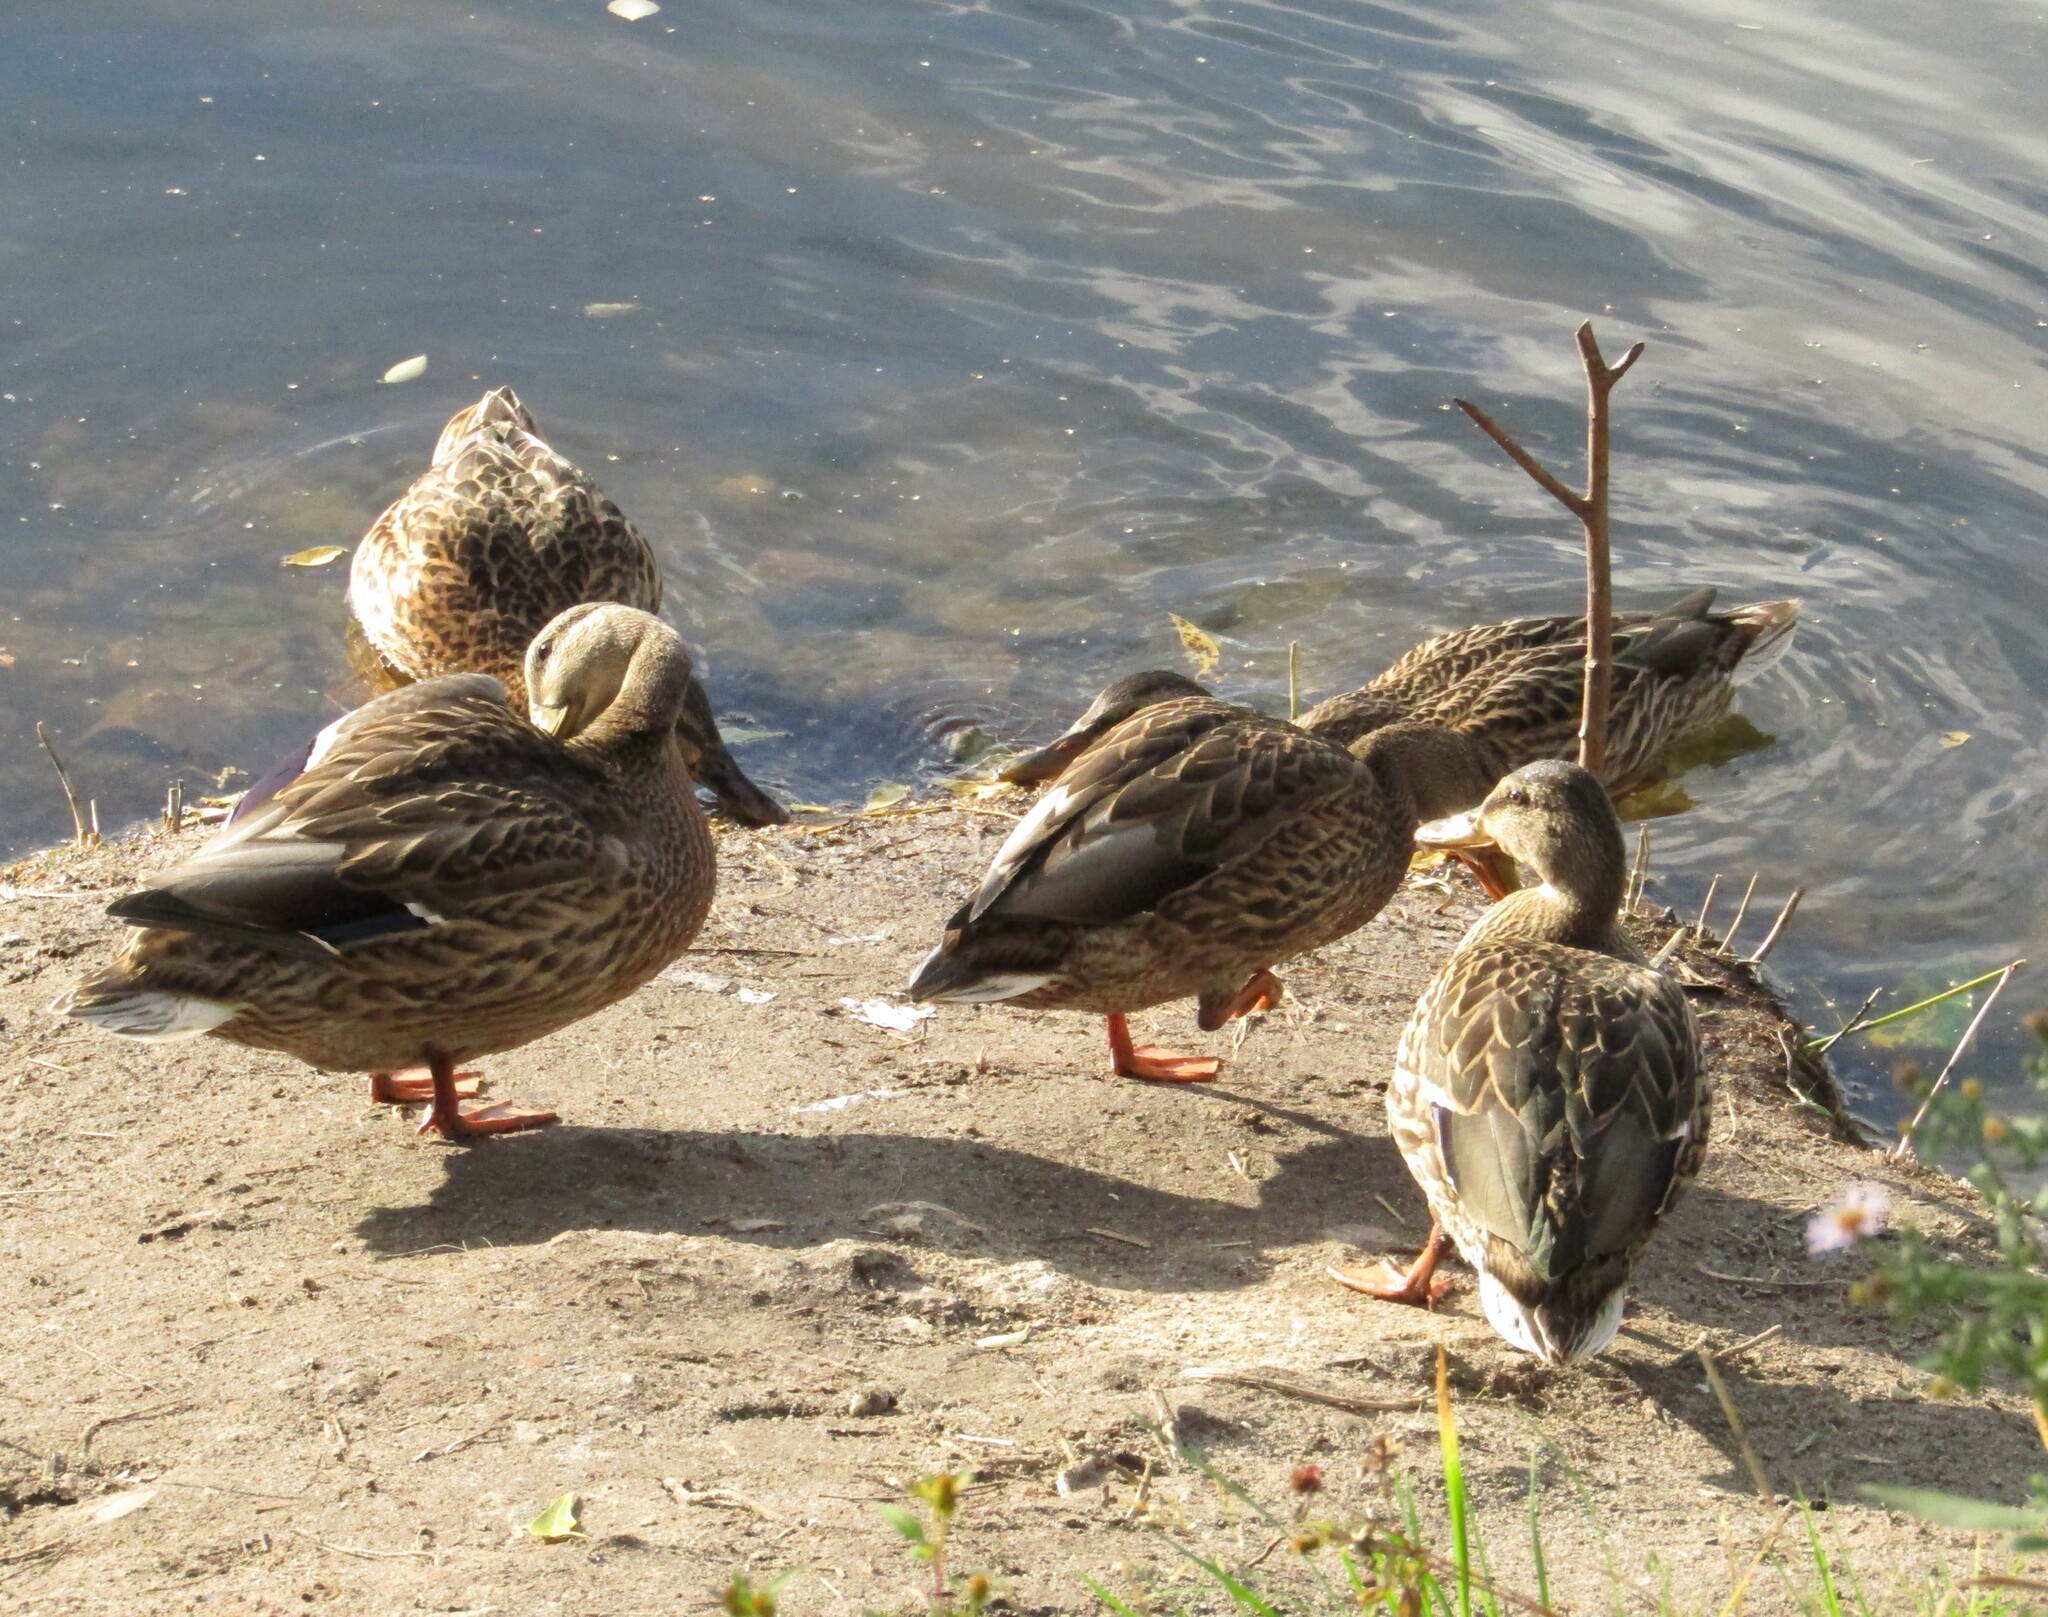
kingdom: Animalia
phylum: Chordata
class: Aves
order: Anseriformes
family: Anatidae
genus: Anas
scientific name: Anas platyrhynchos
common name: Mallard
